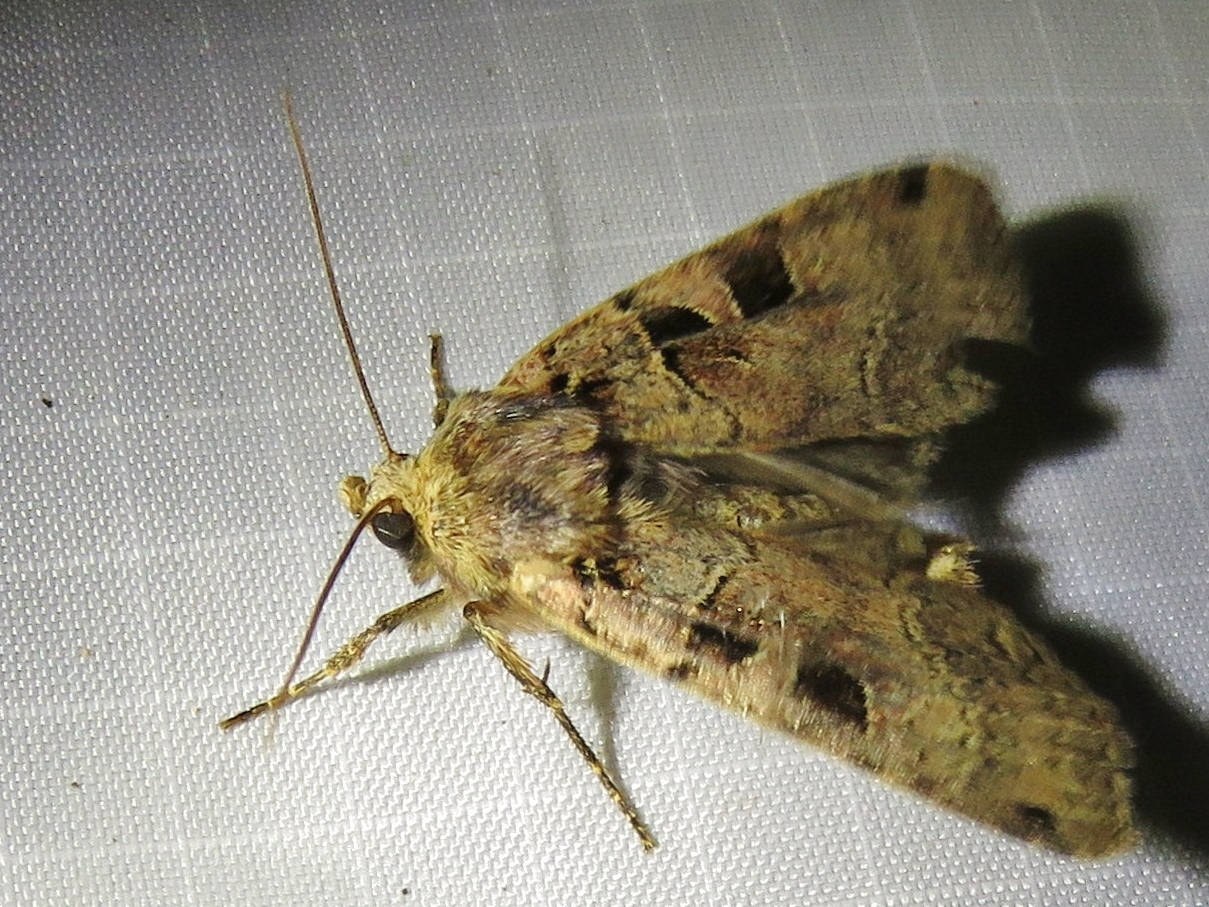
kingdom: Animalia
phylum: Arthropoda
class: Insecta
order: Lepidoptera
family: Noctuidae
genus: Xestia
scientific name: Xestia triangulum
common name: Double square-spot
